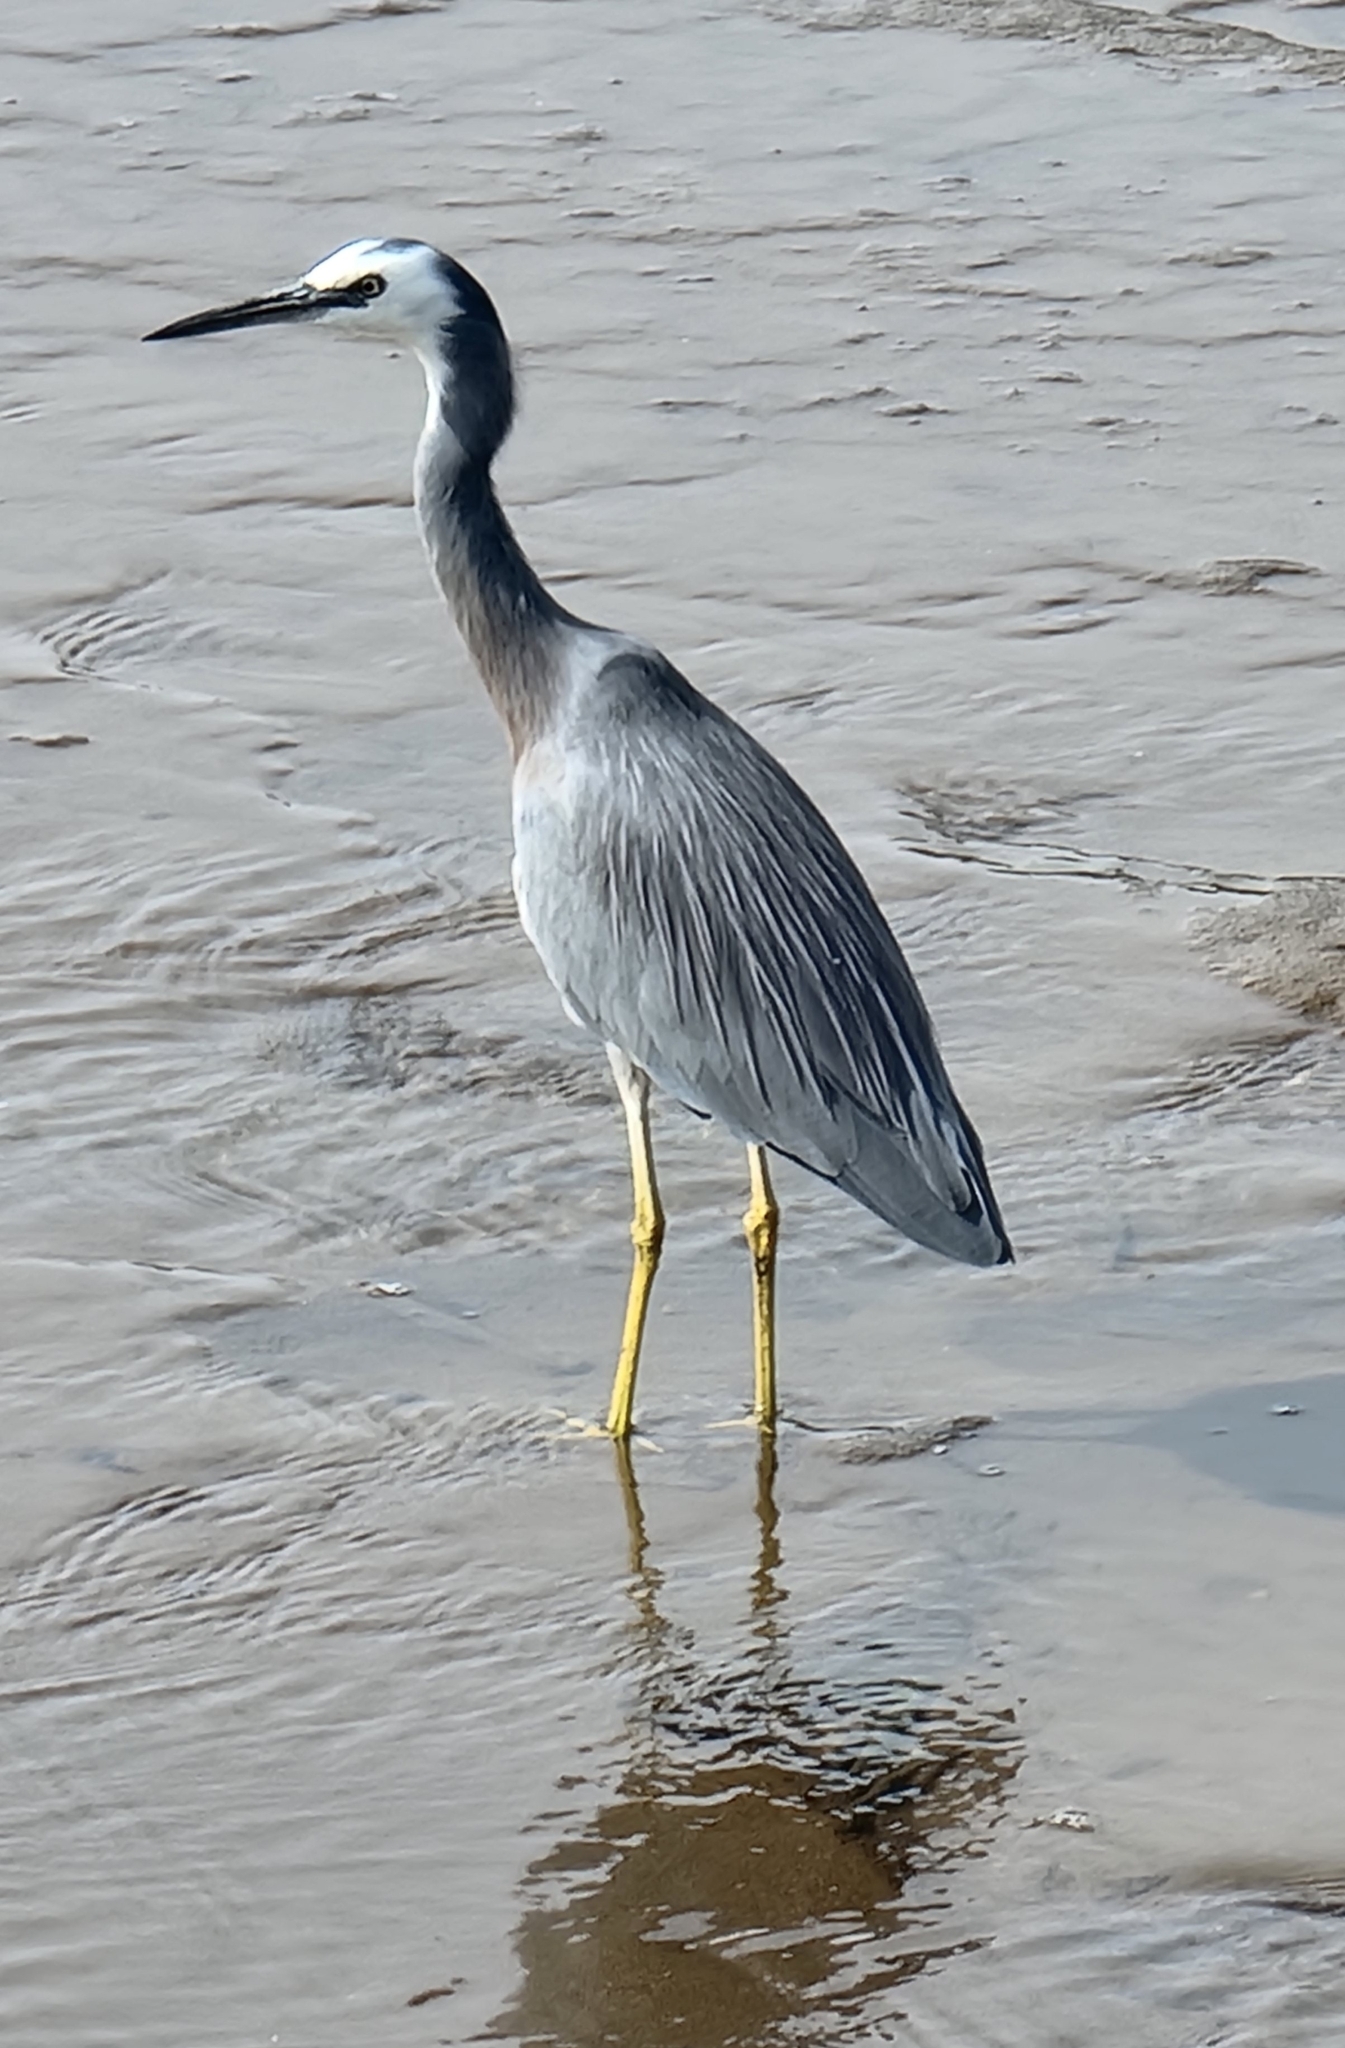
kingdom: Animalia
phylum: Chordata
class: Aves
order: Pelecaniformes
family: Ardeidae
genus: Egretta
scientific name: Egretta novaehollandiae
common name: White-faced heron
